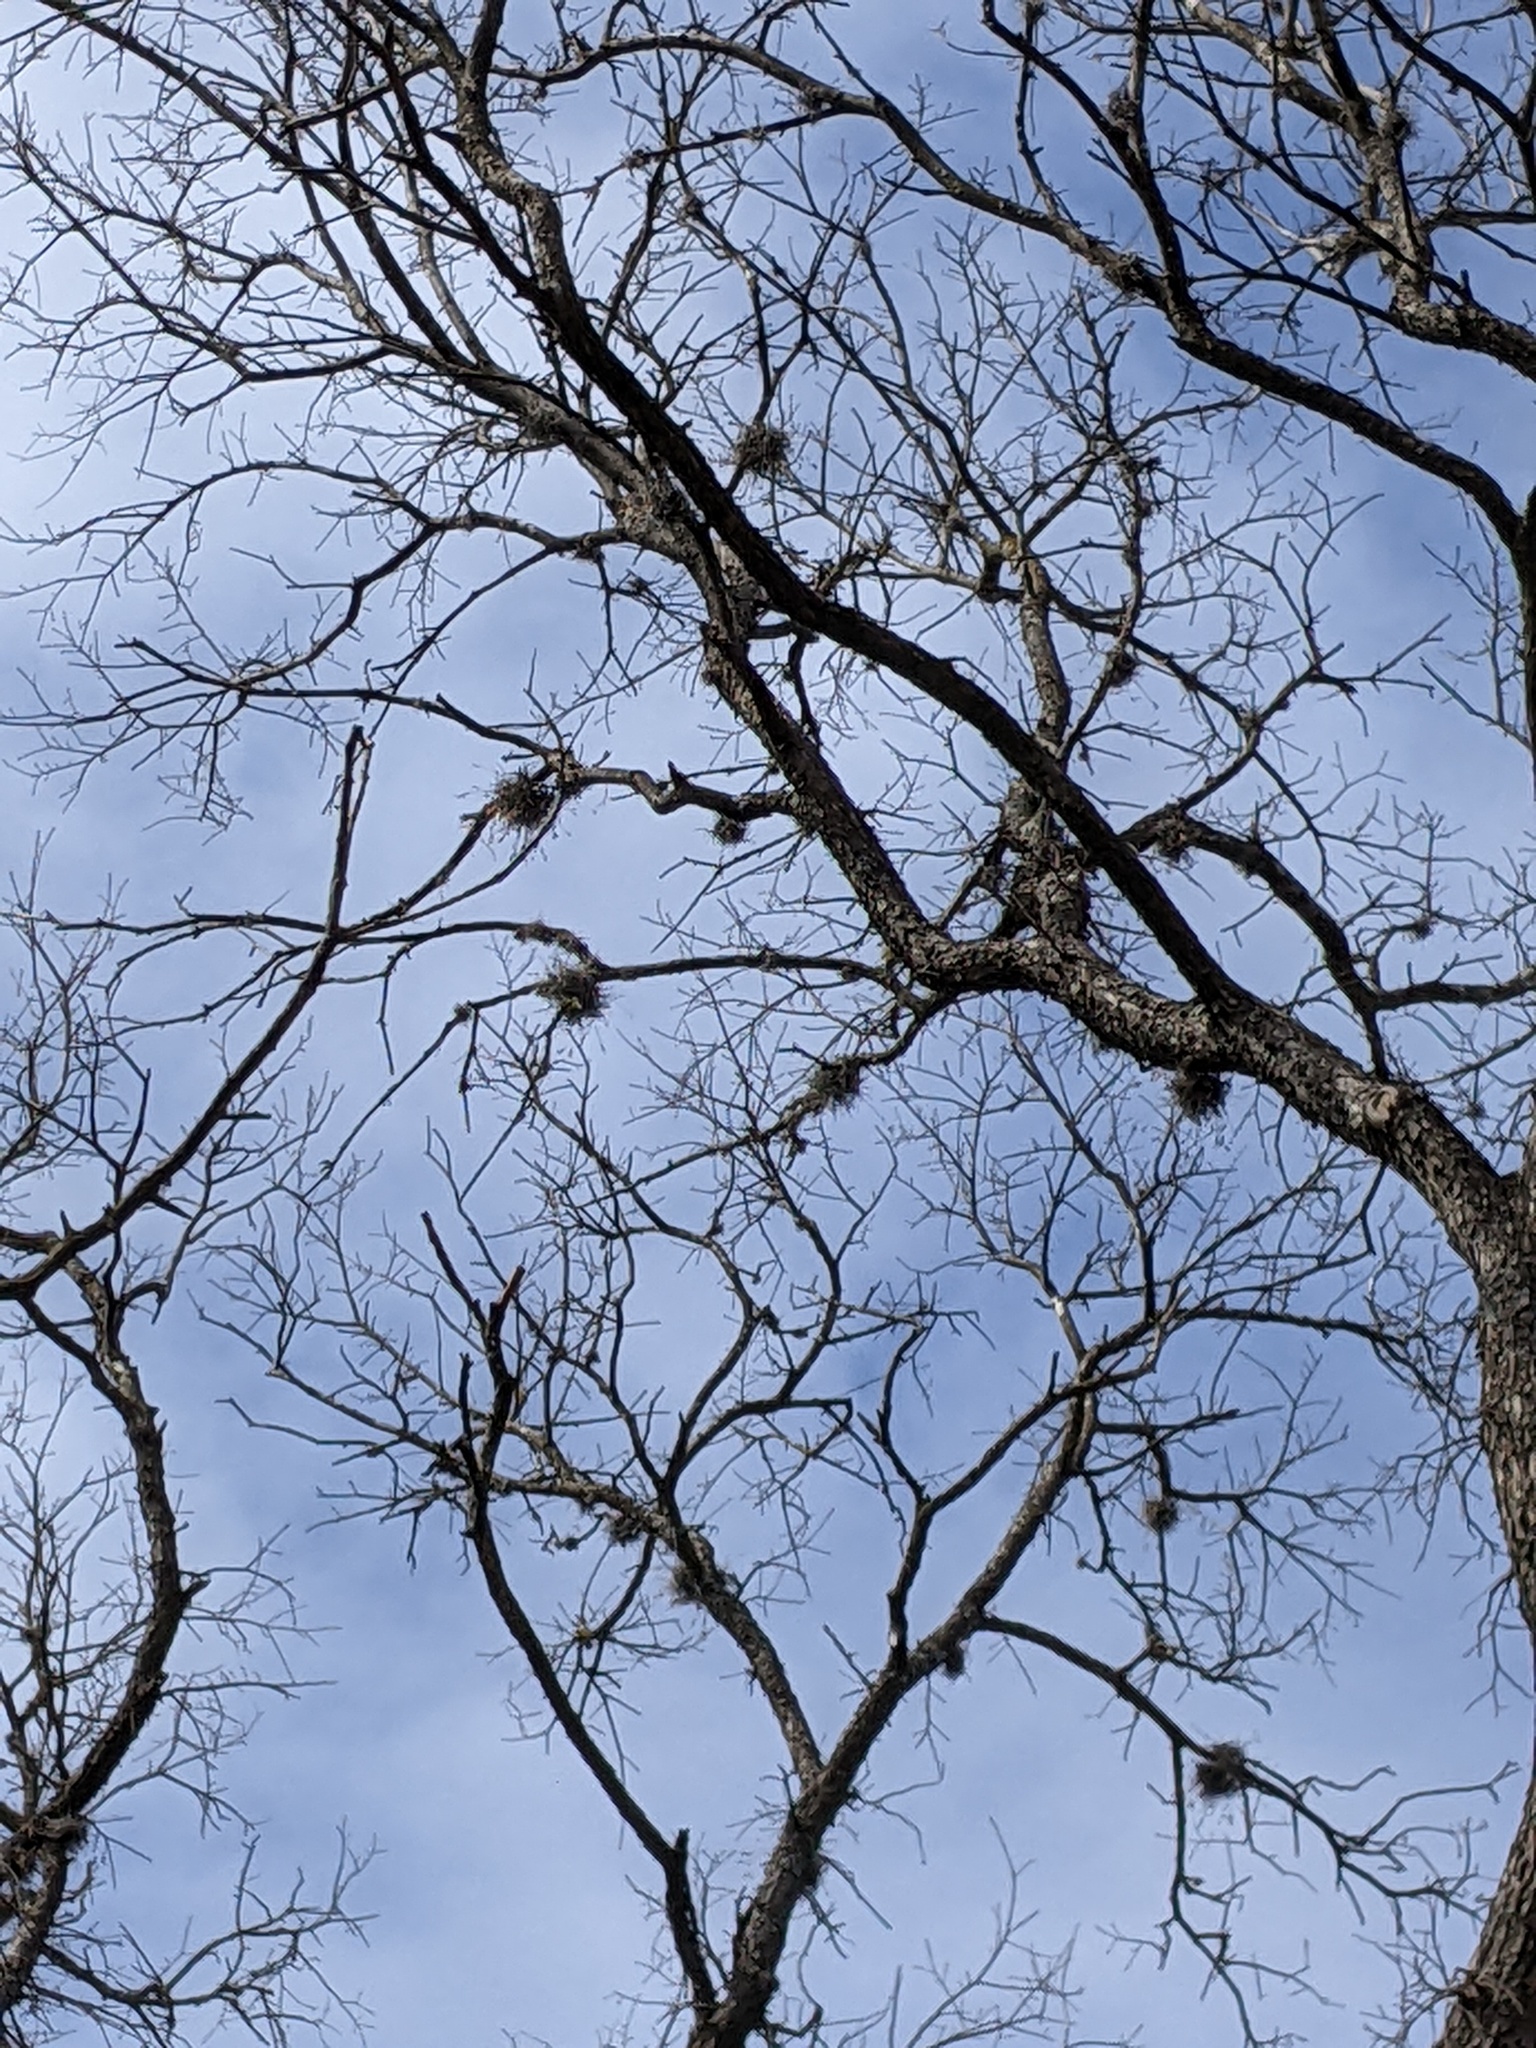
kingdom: Plantae
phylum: Tracheophyta
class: Liliopsida
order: Poales
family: Bromeliaceae
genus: Tillandsia
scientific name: Tillandsia recurvata
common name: Small ballmoss
